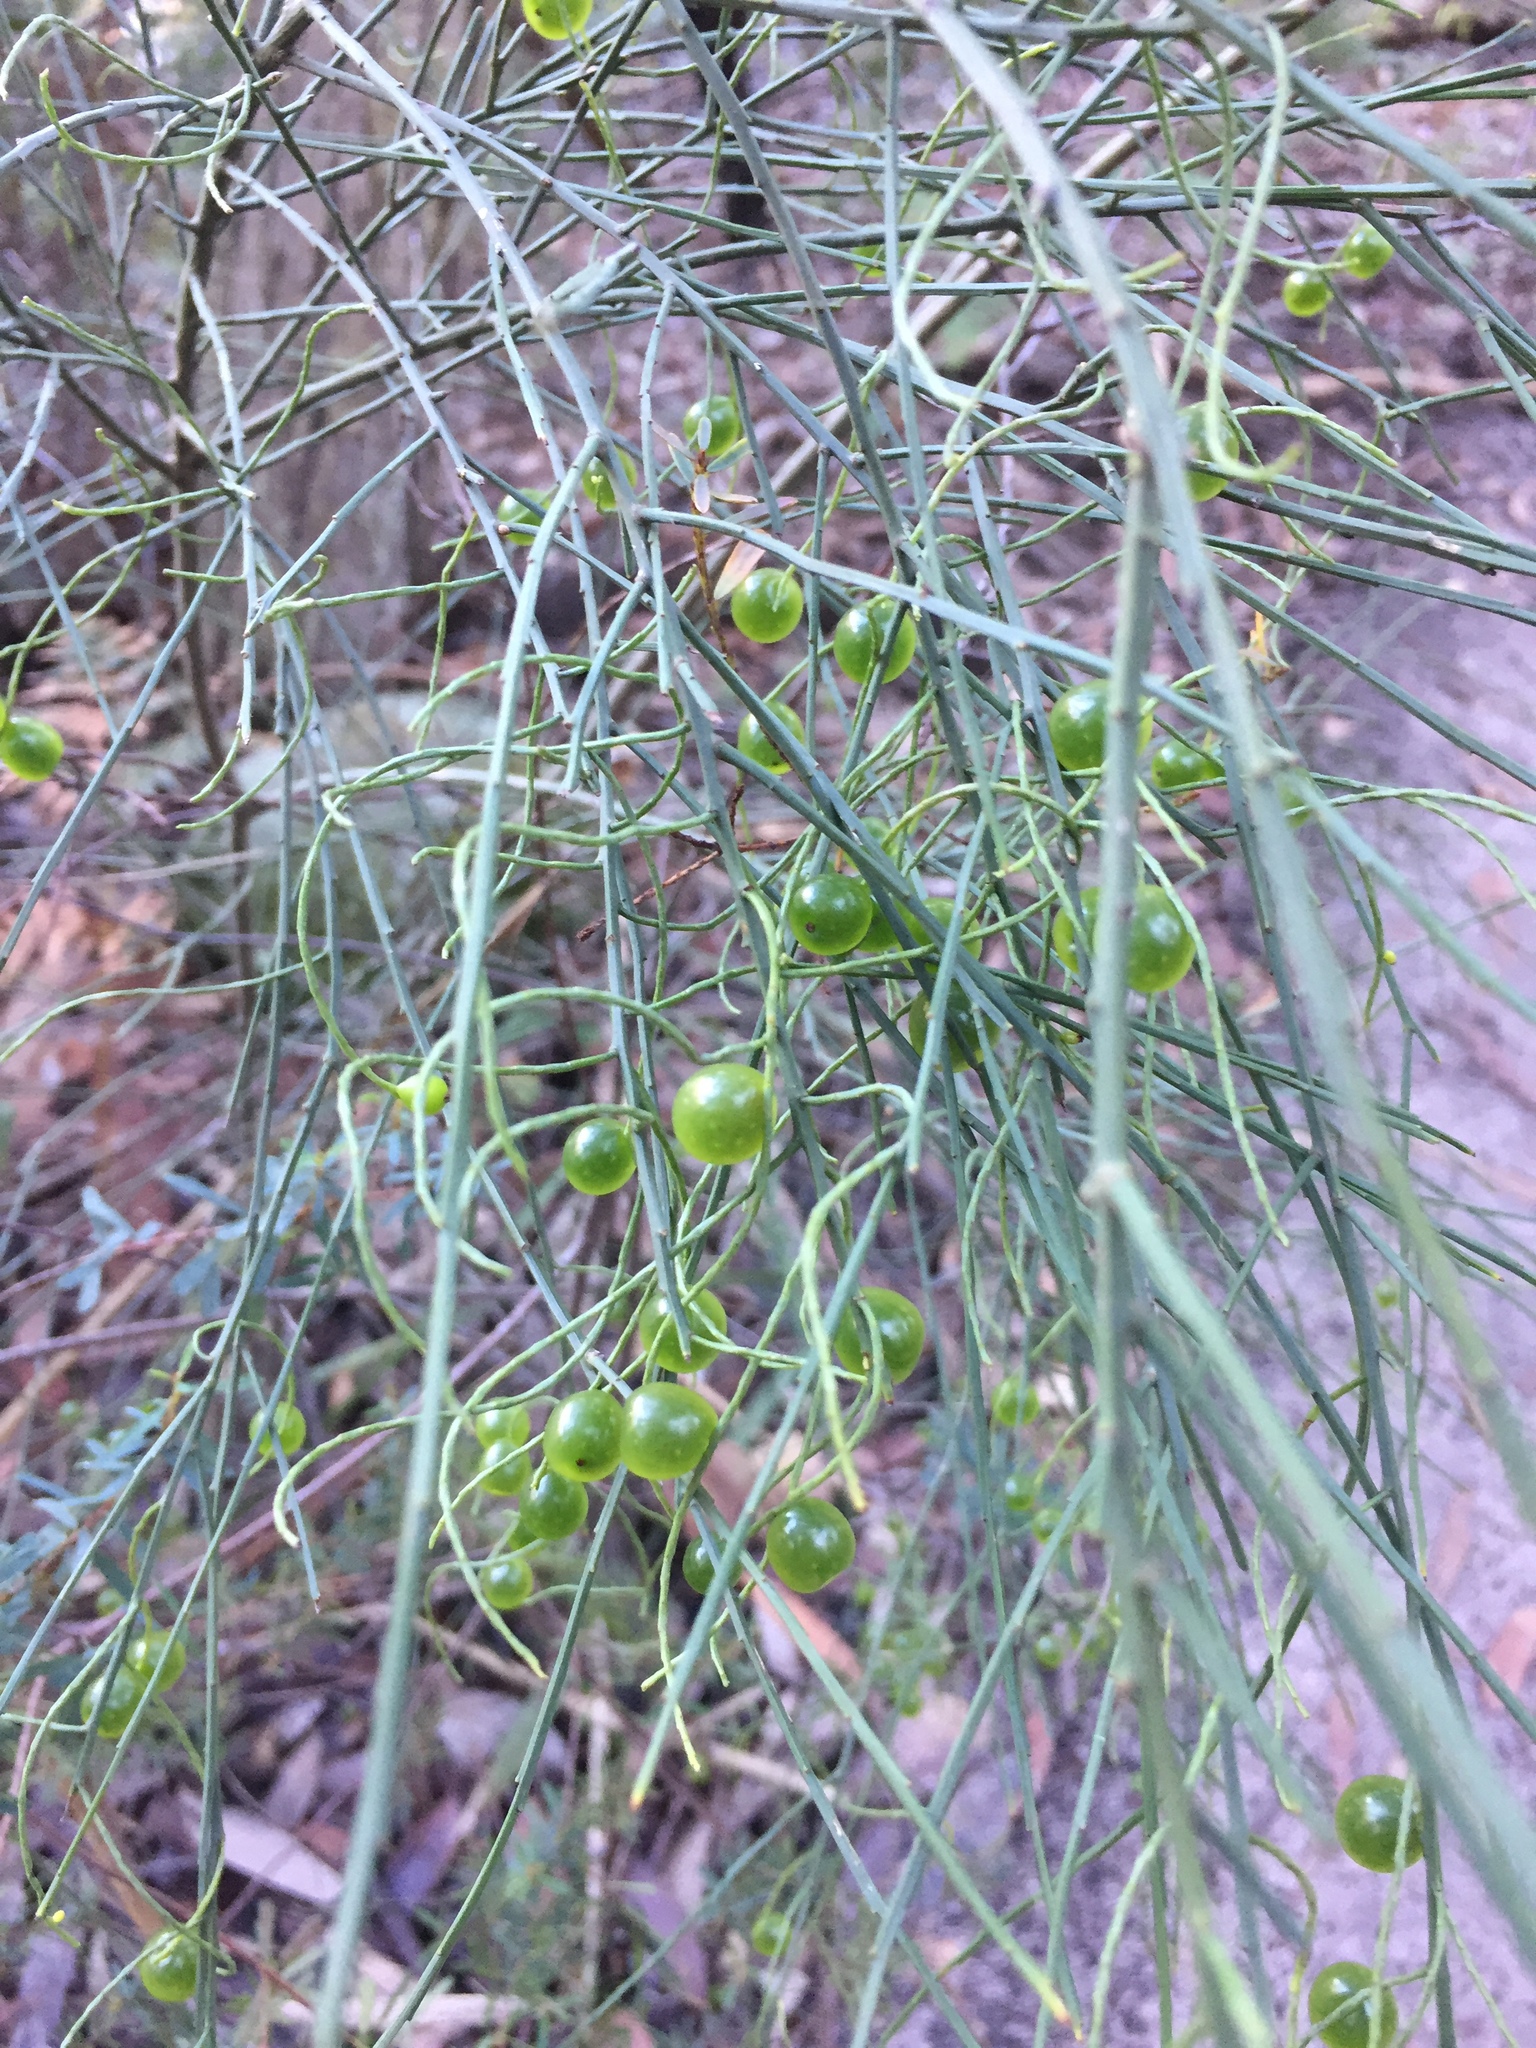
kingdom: Plantae
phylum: Tracheophyta
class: Magnoliopsida
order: Santalales
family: Amphorogynaceae
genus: Leptomeria
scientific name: Leptomeria acida
